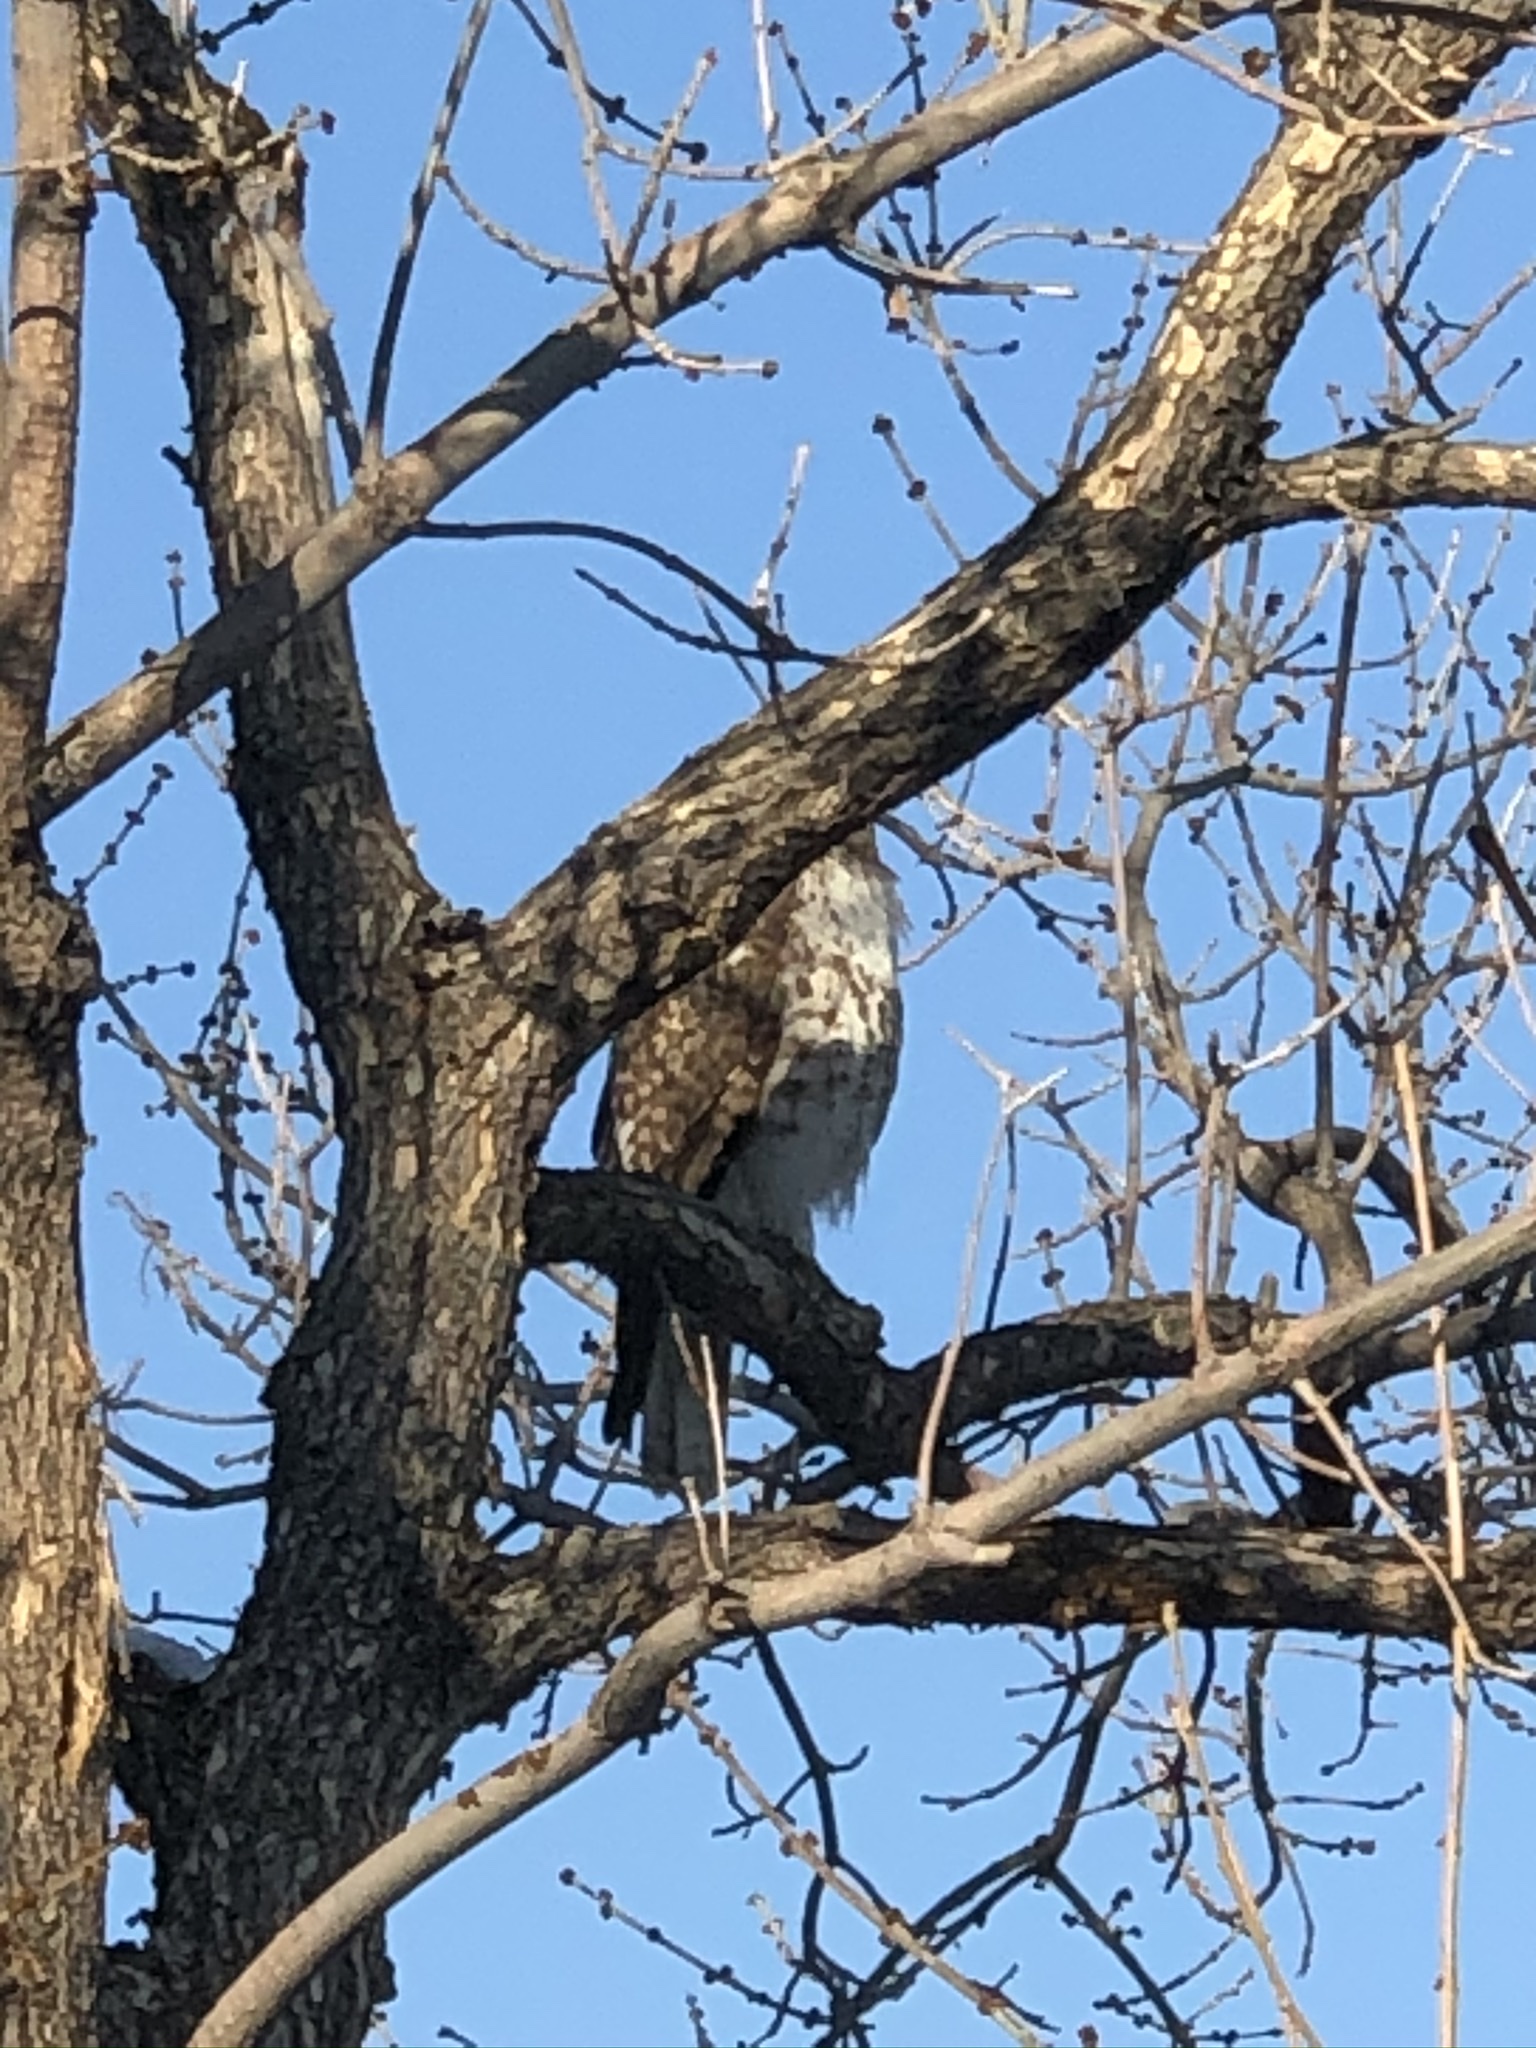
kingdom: Animalia
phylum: Chordata
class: Aves
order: Accipitriformes
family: Accipitridae
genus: Buteo
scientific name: Buteo jamaicensis
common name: Red-tailed hawk
